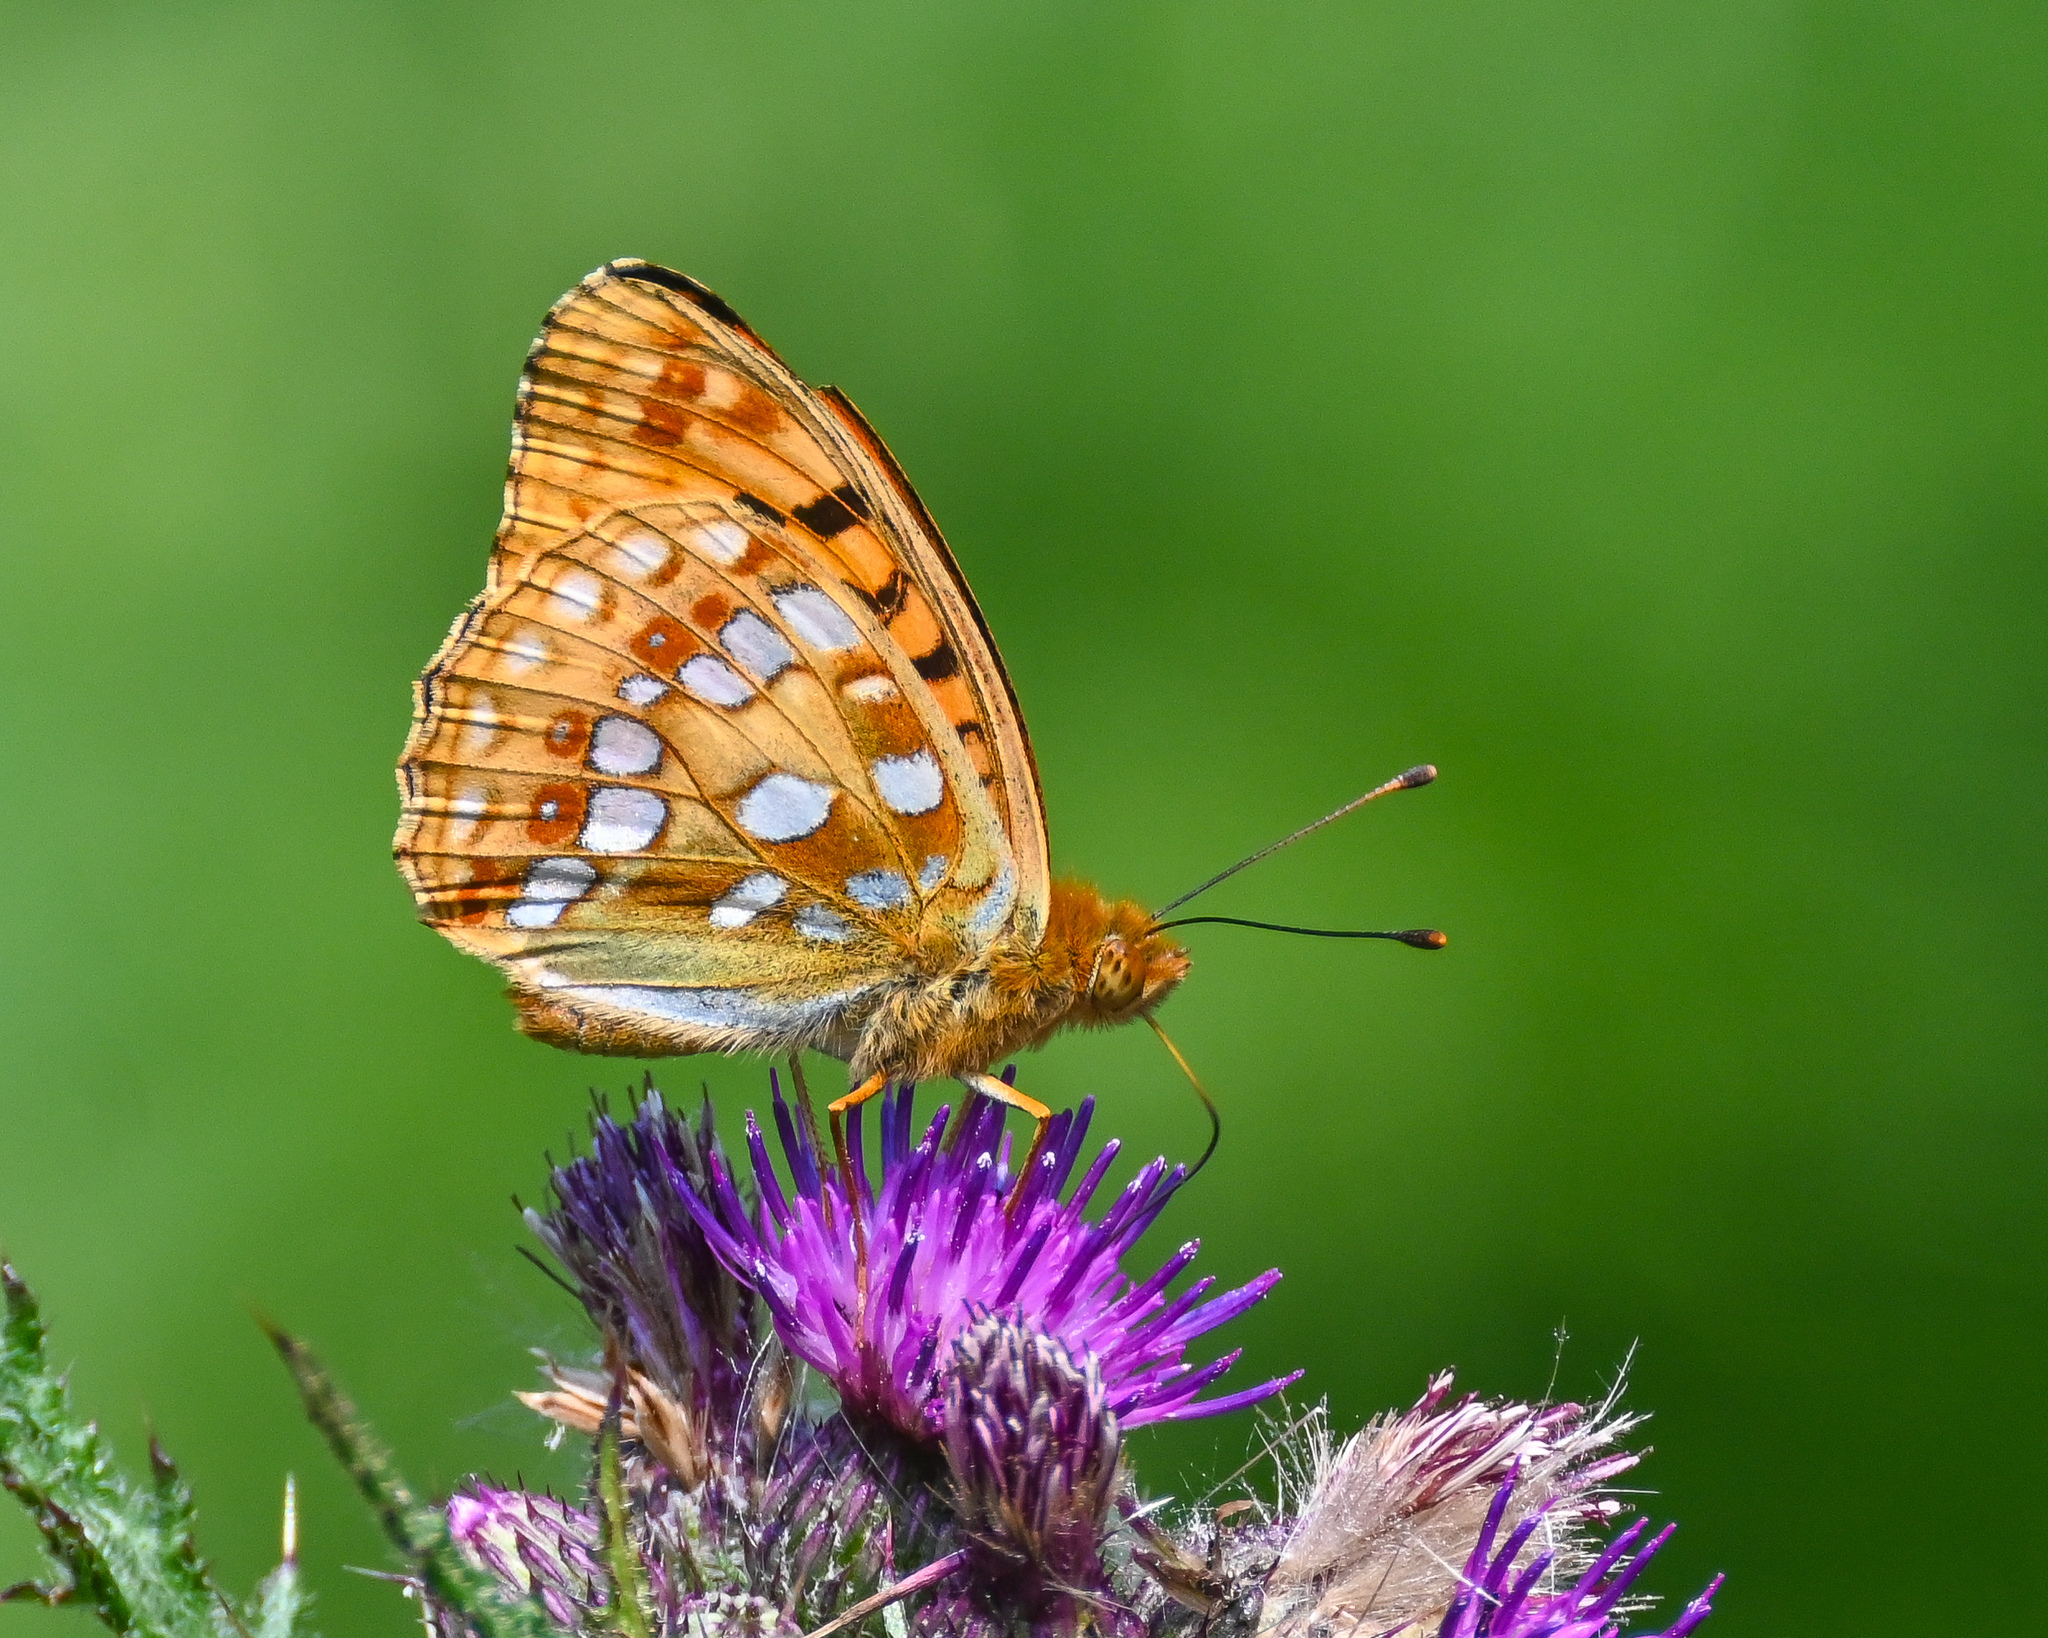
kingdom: Animalia
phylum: Arthropoda
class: Insecta
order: Lepidoptera
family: Nymphalidae
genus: Fabriciana
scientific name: Fabriciana adippe
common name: High brown fritillary
